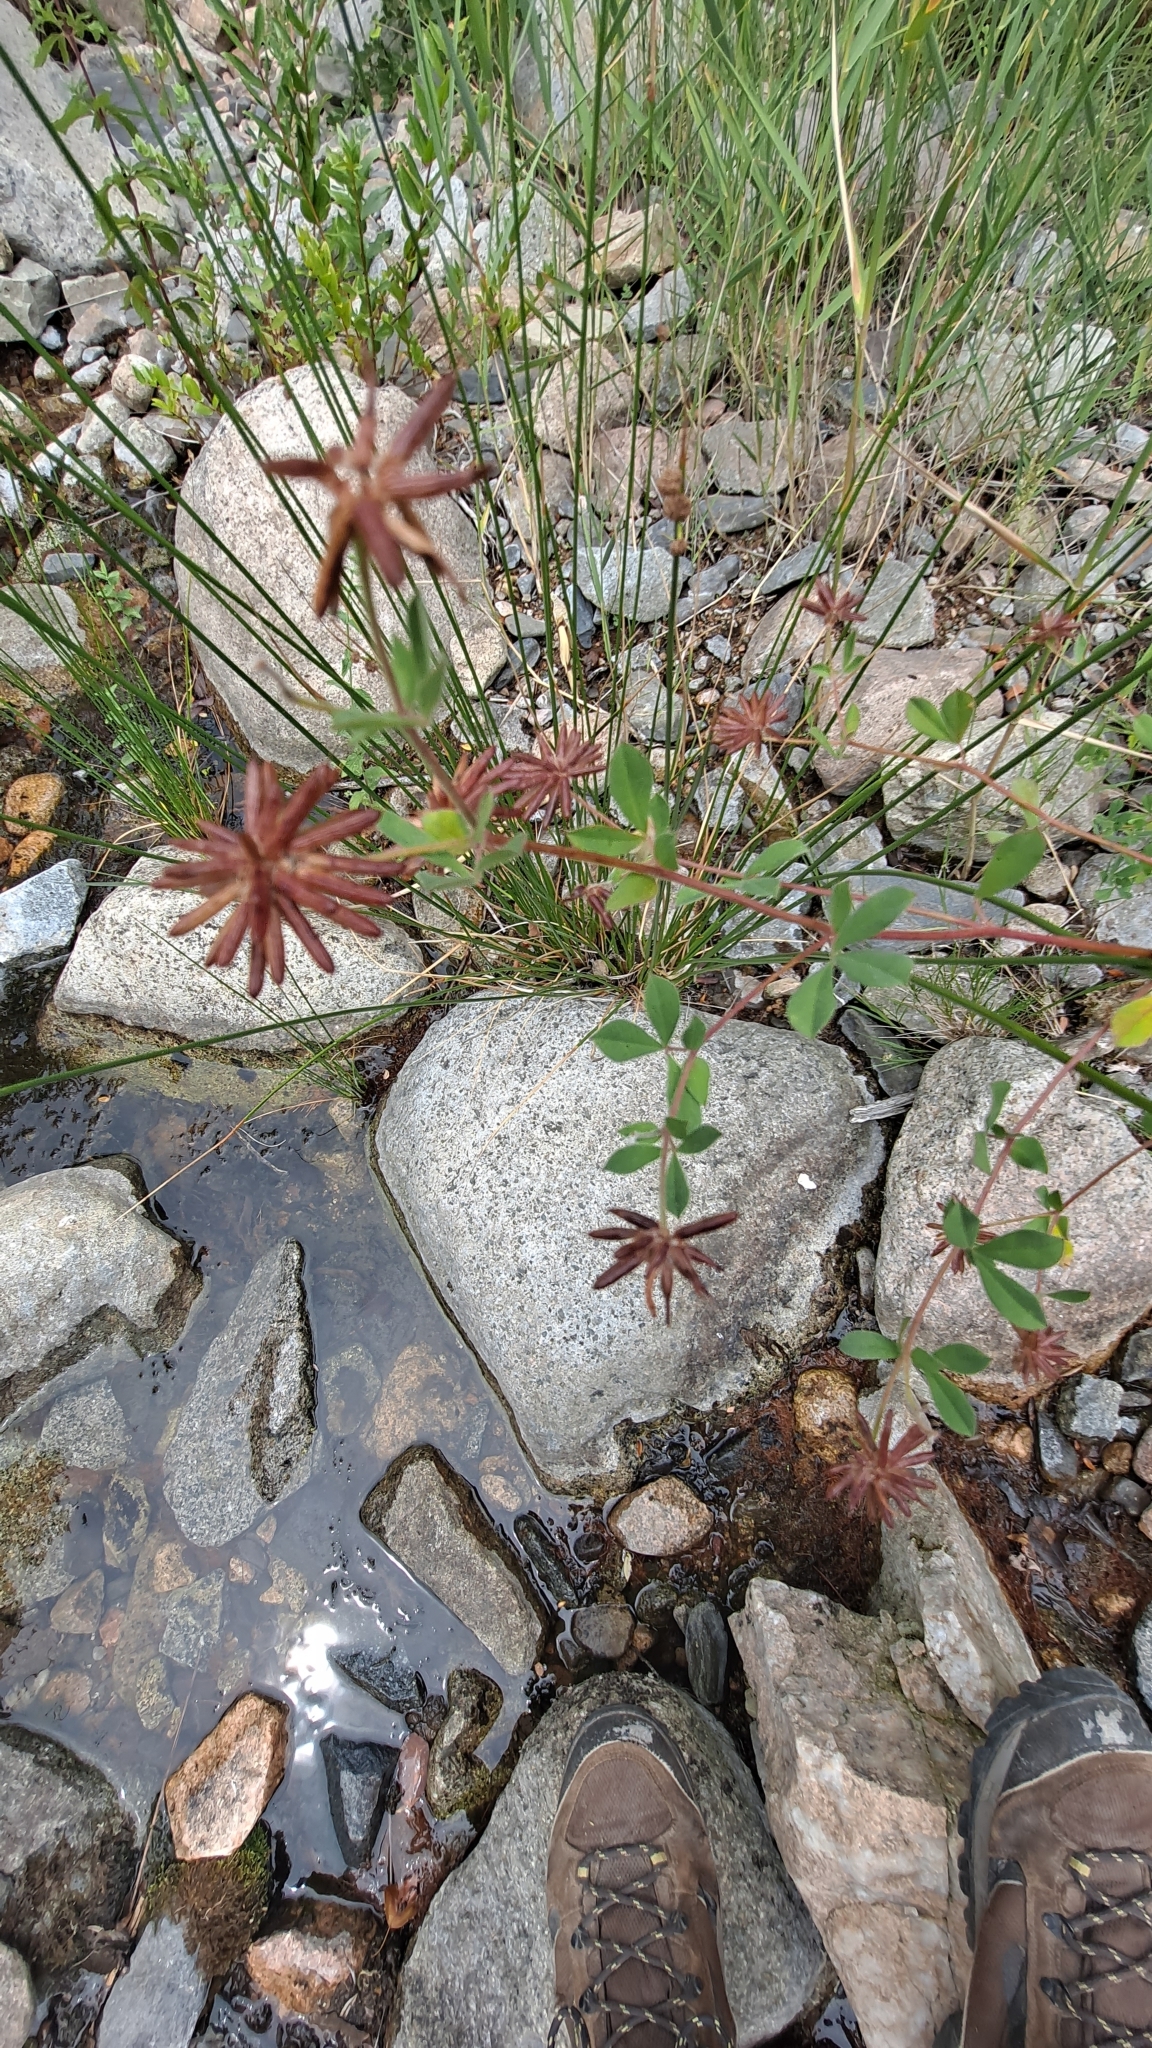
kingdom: Plantae
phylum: Tracheophyta
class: Magnoliopsida
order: Fabales
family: Fabaceae
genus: Lotus
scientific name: Lotus rectus
